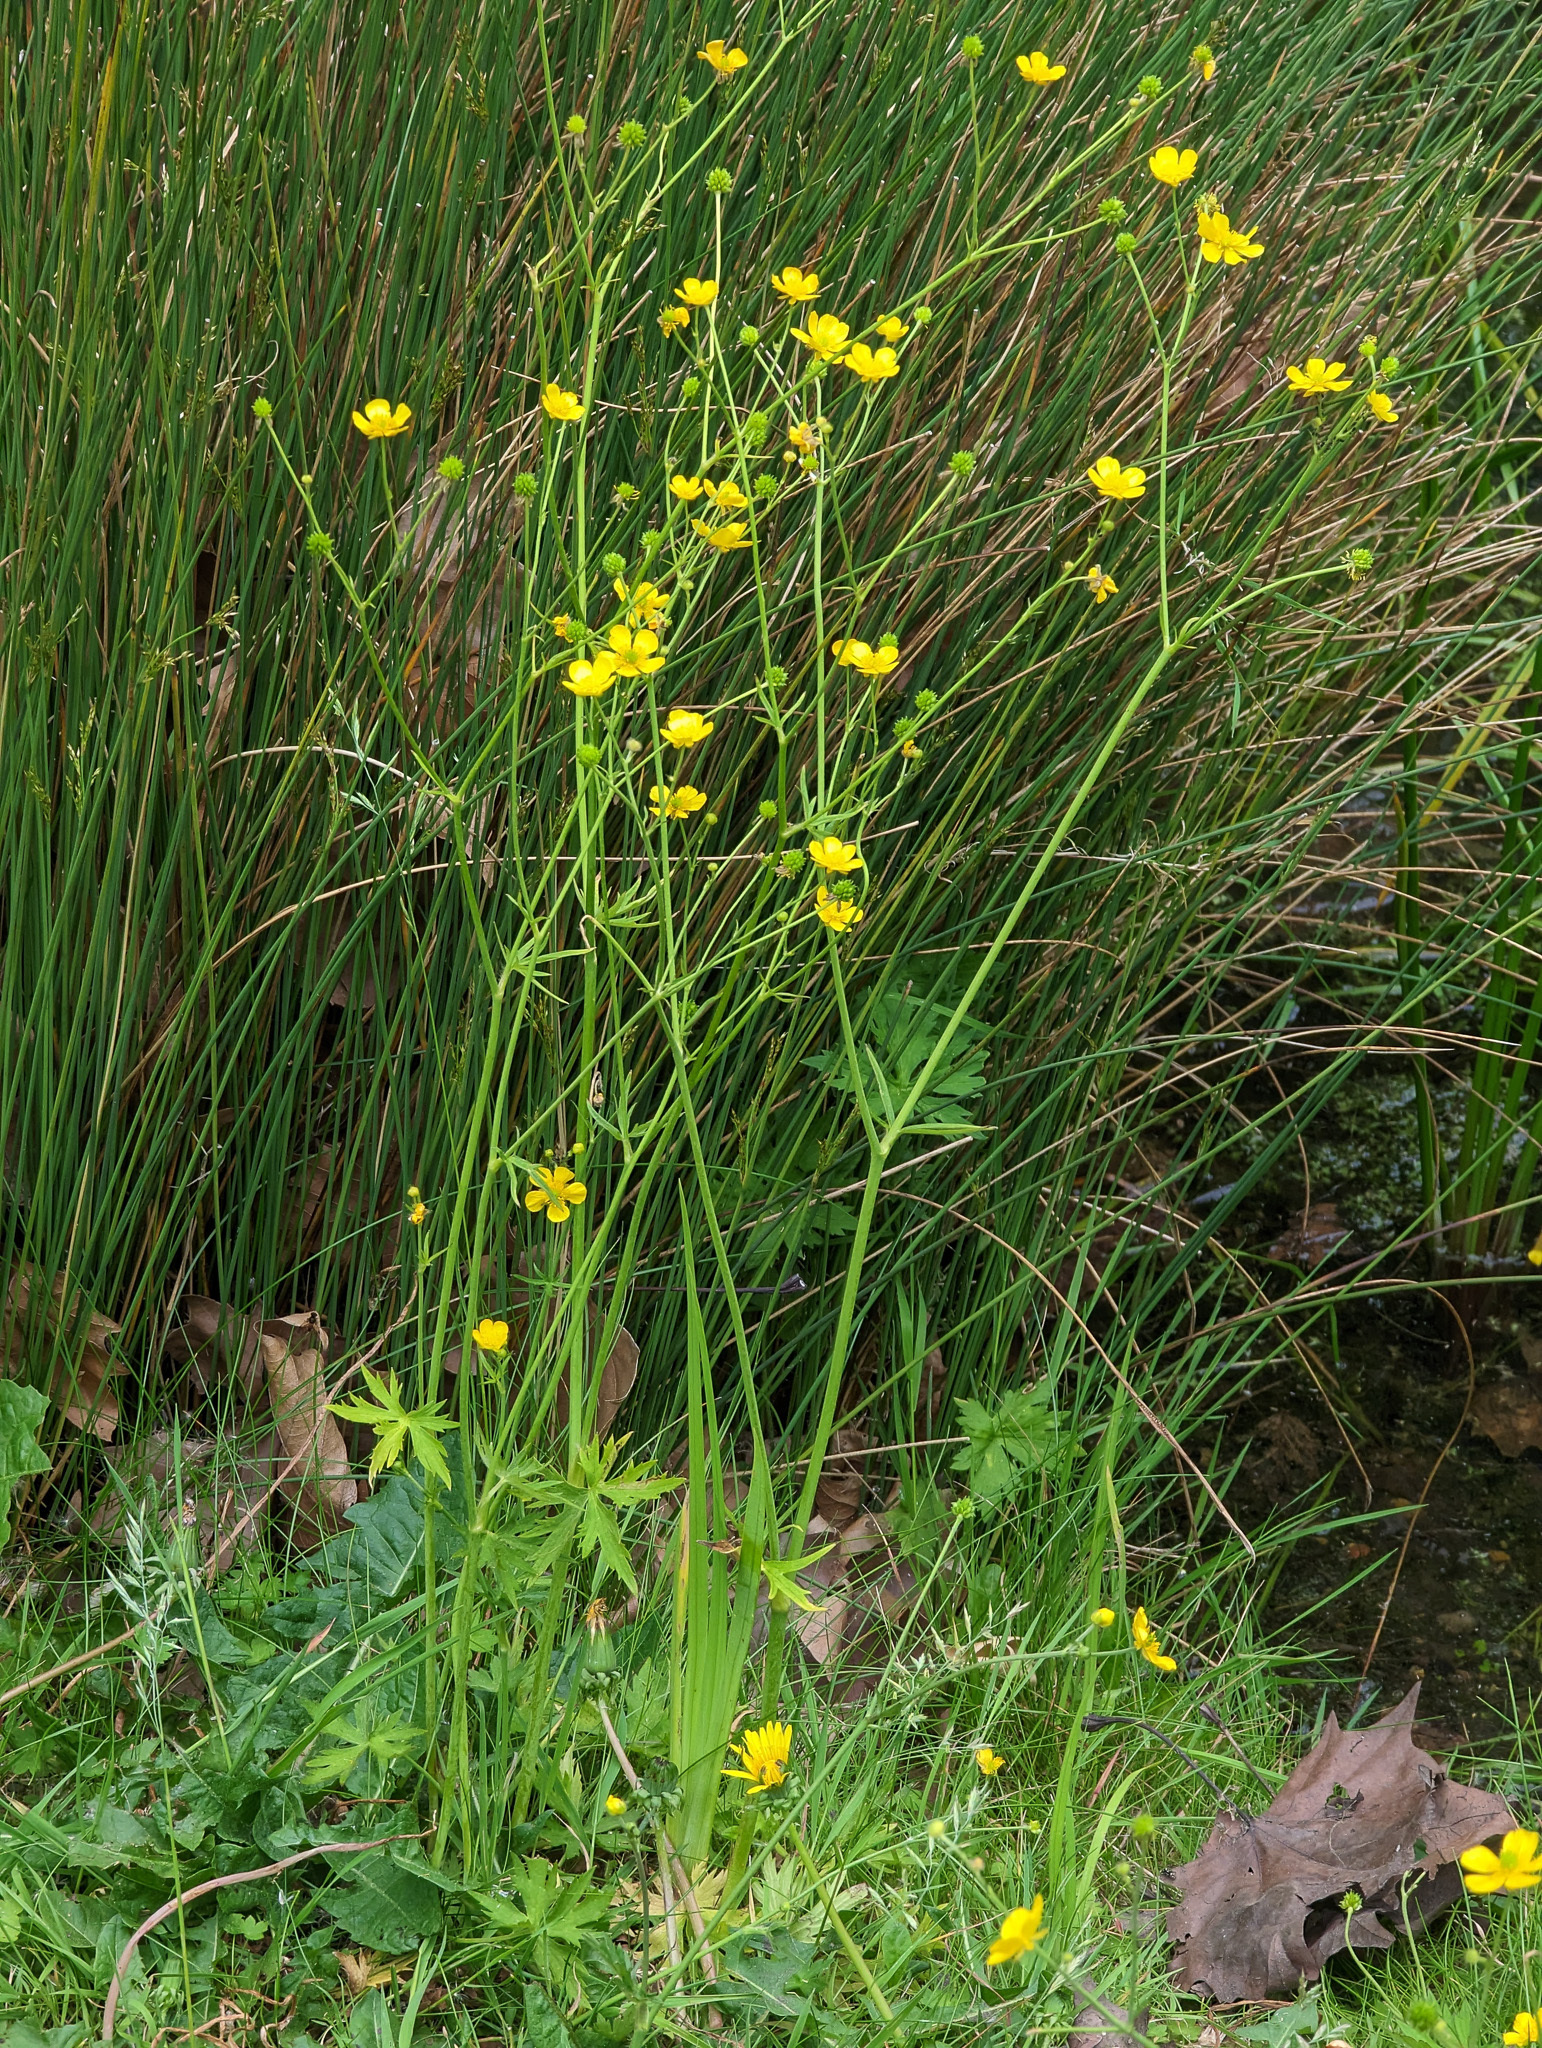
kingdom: Plantae
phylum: Tracheophyta
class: Magnoliopsida
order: Ranunculales
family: Ranunculaceae
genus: Ranunculus
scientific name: Ranunculus acris
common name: Meadow buttercup
